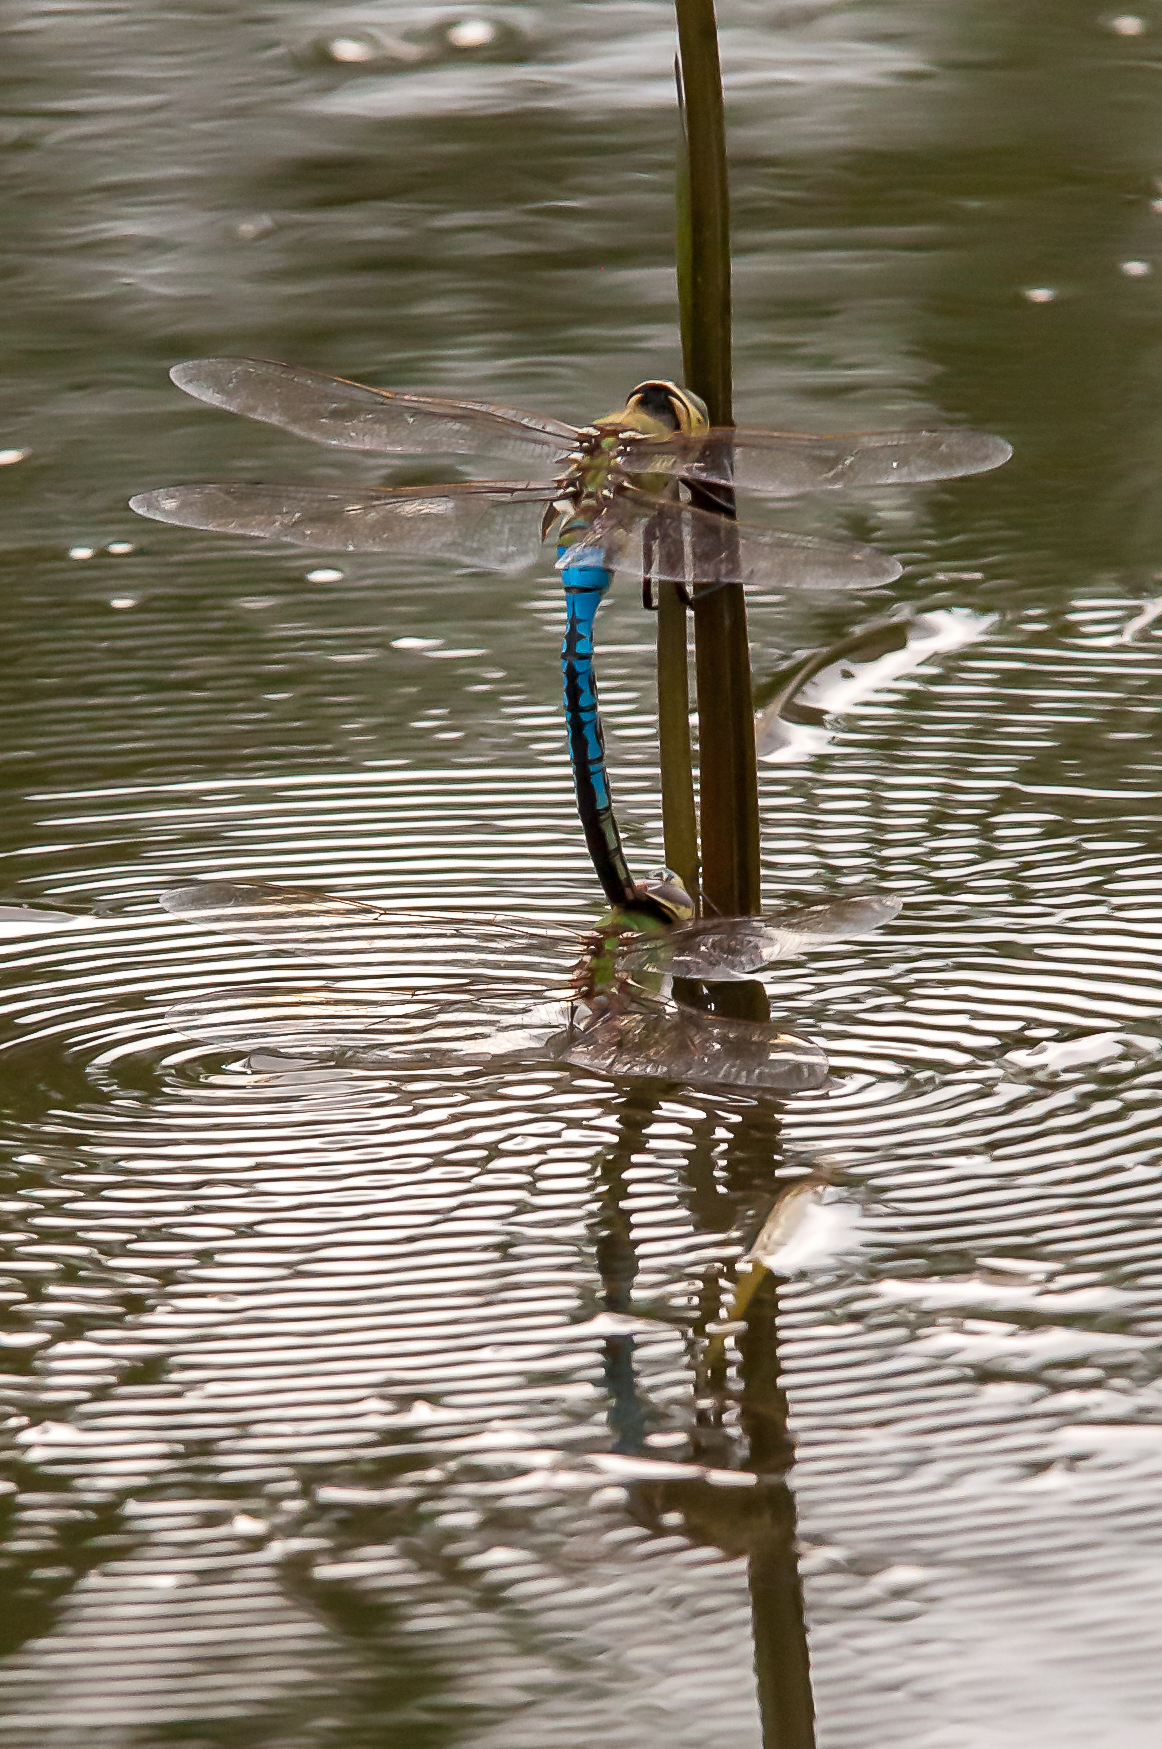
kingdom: Animalia
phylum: Arthropoda
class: Insecta
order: Odonata
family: Aeshnidae
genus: Anax
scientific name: Anax junius
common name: Common green darner
